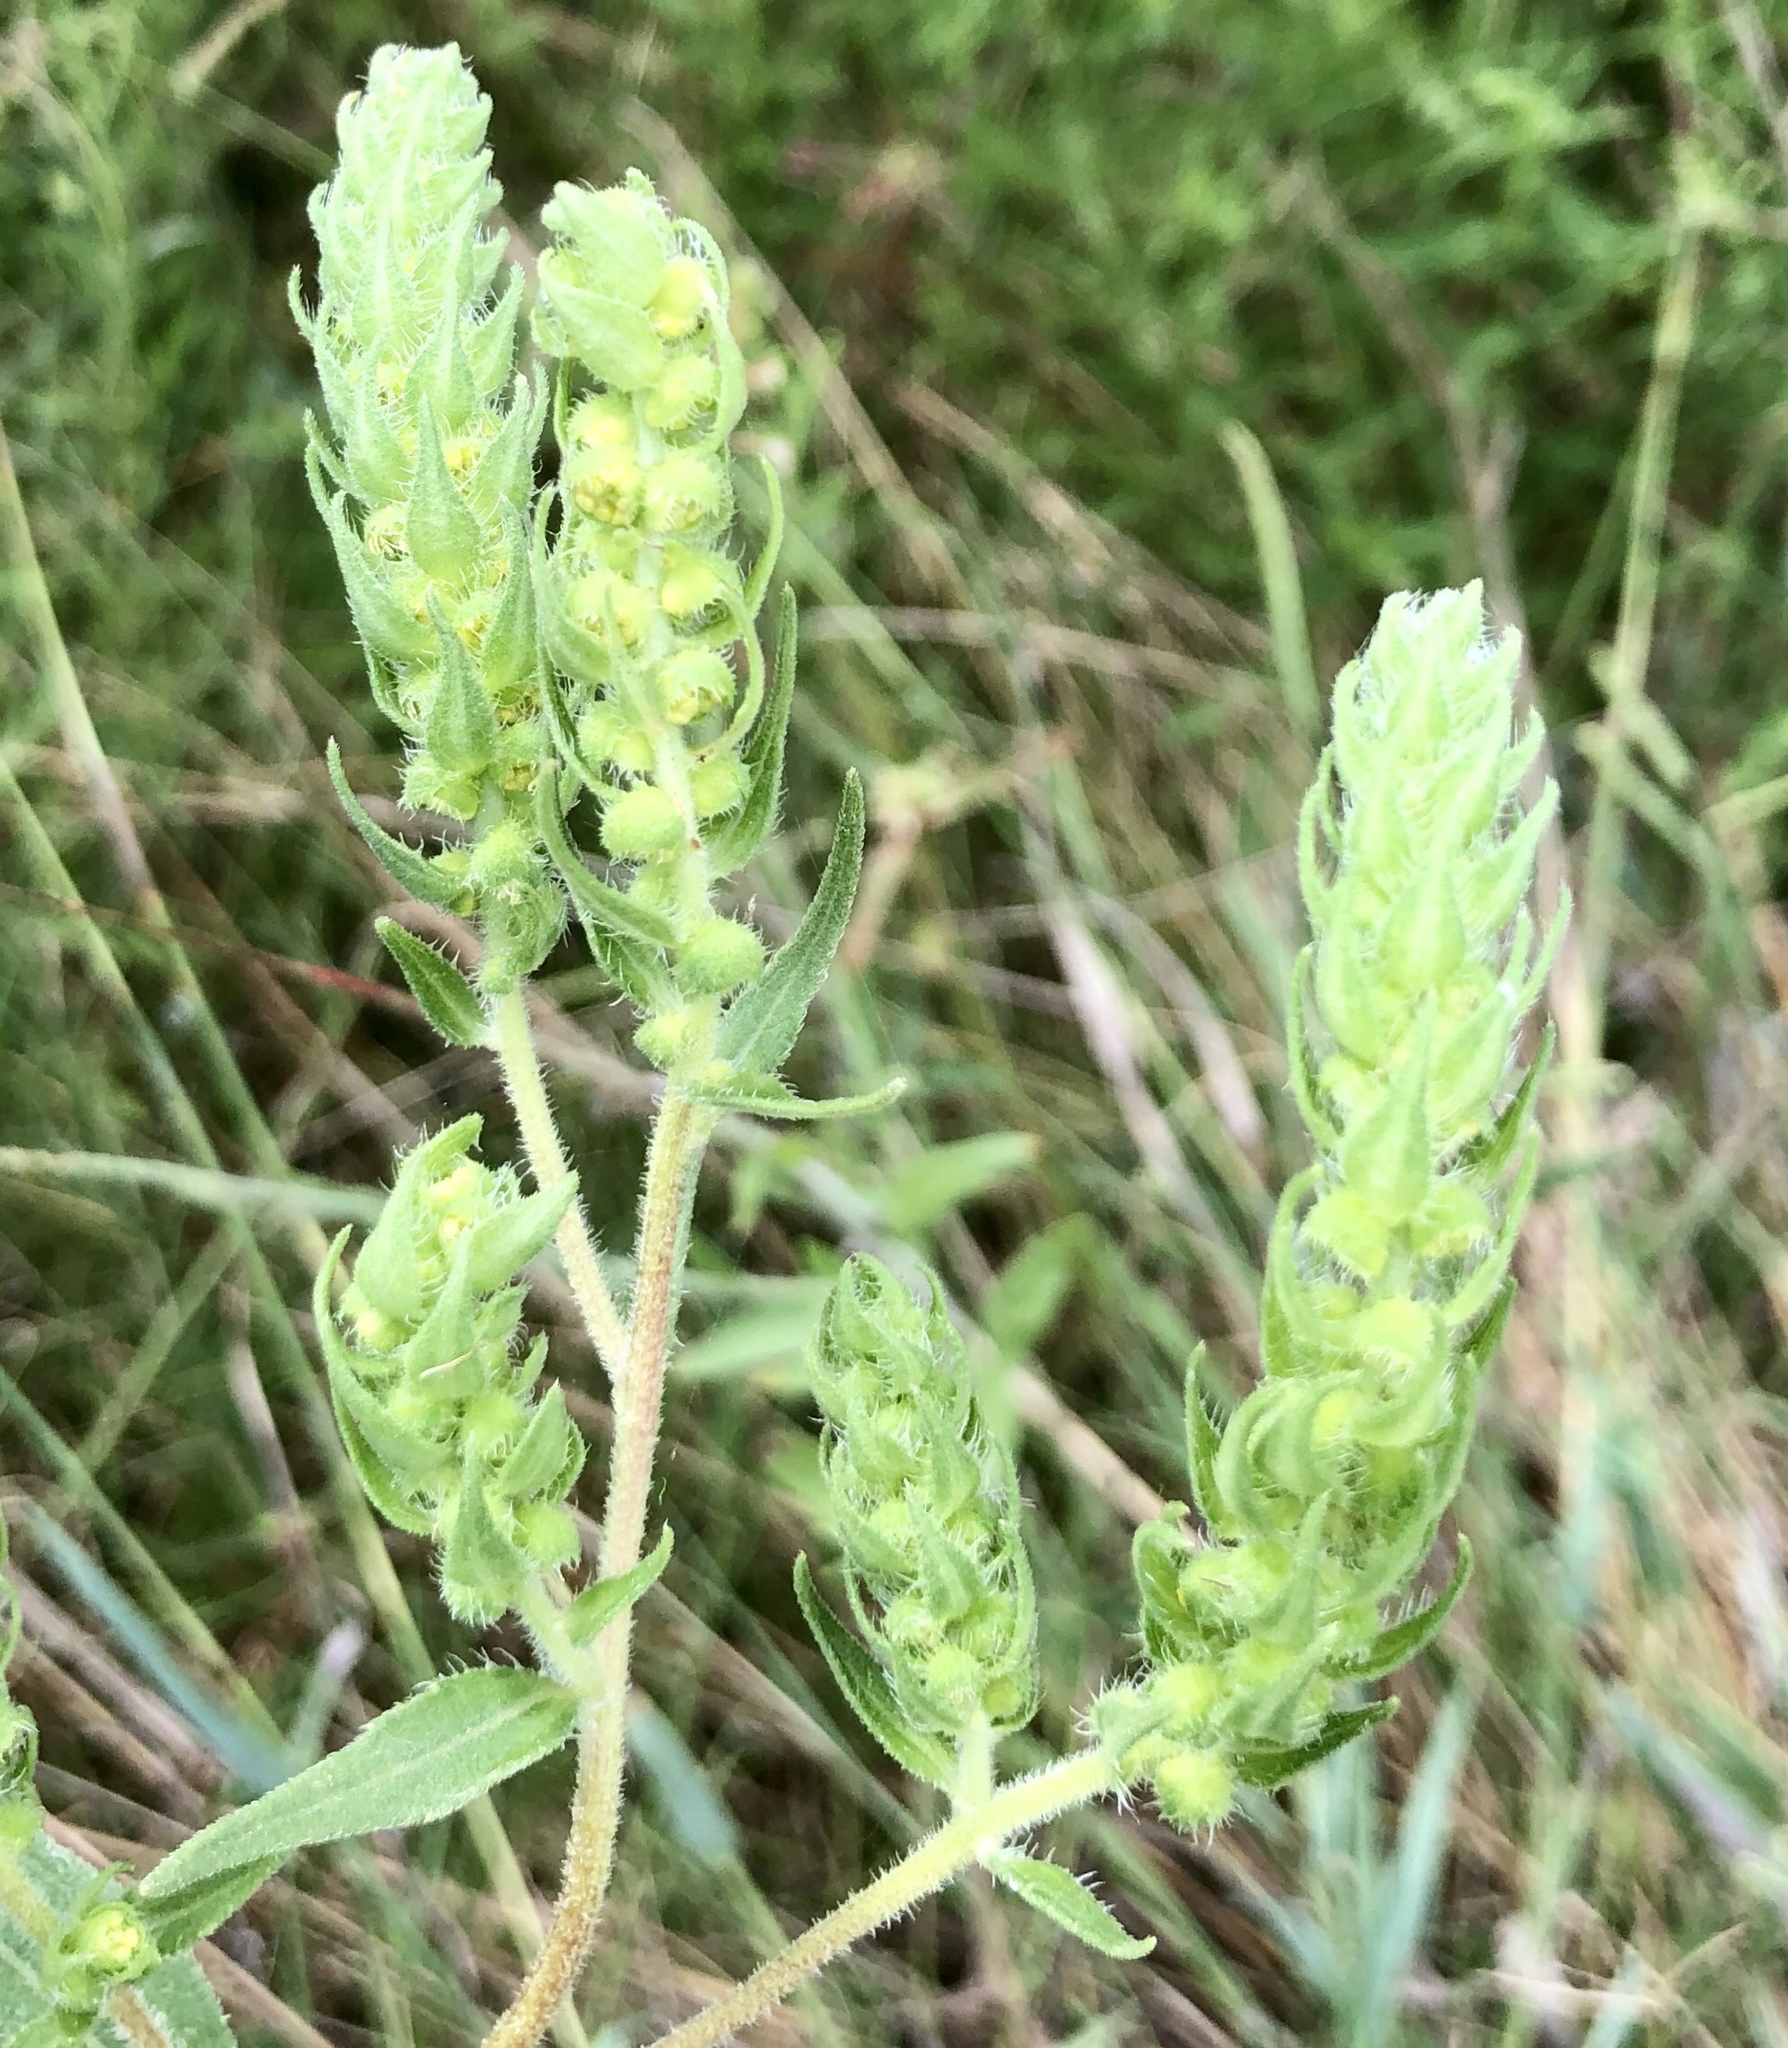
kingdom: Plantae
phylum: Tracheophyta
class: Magnoliopsida
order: Asterales
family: Asteraceae
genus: Iva
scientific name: Iva annua
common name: Marsh-elder
